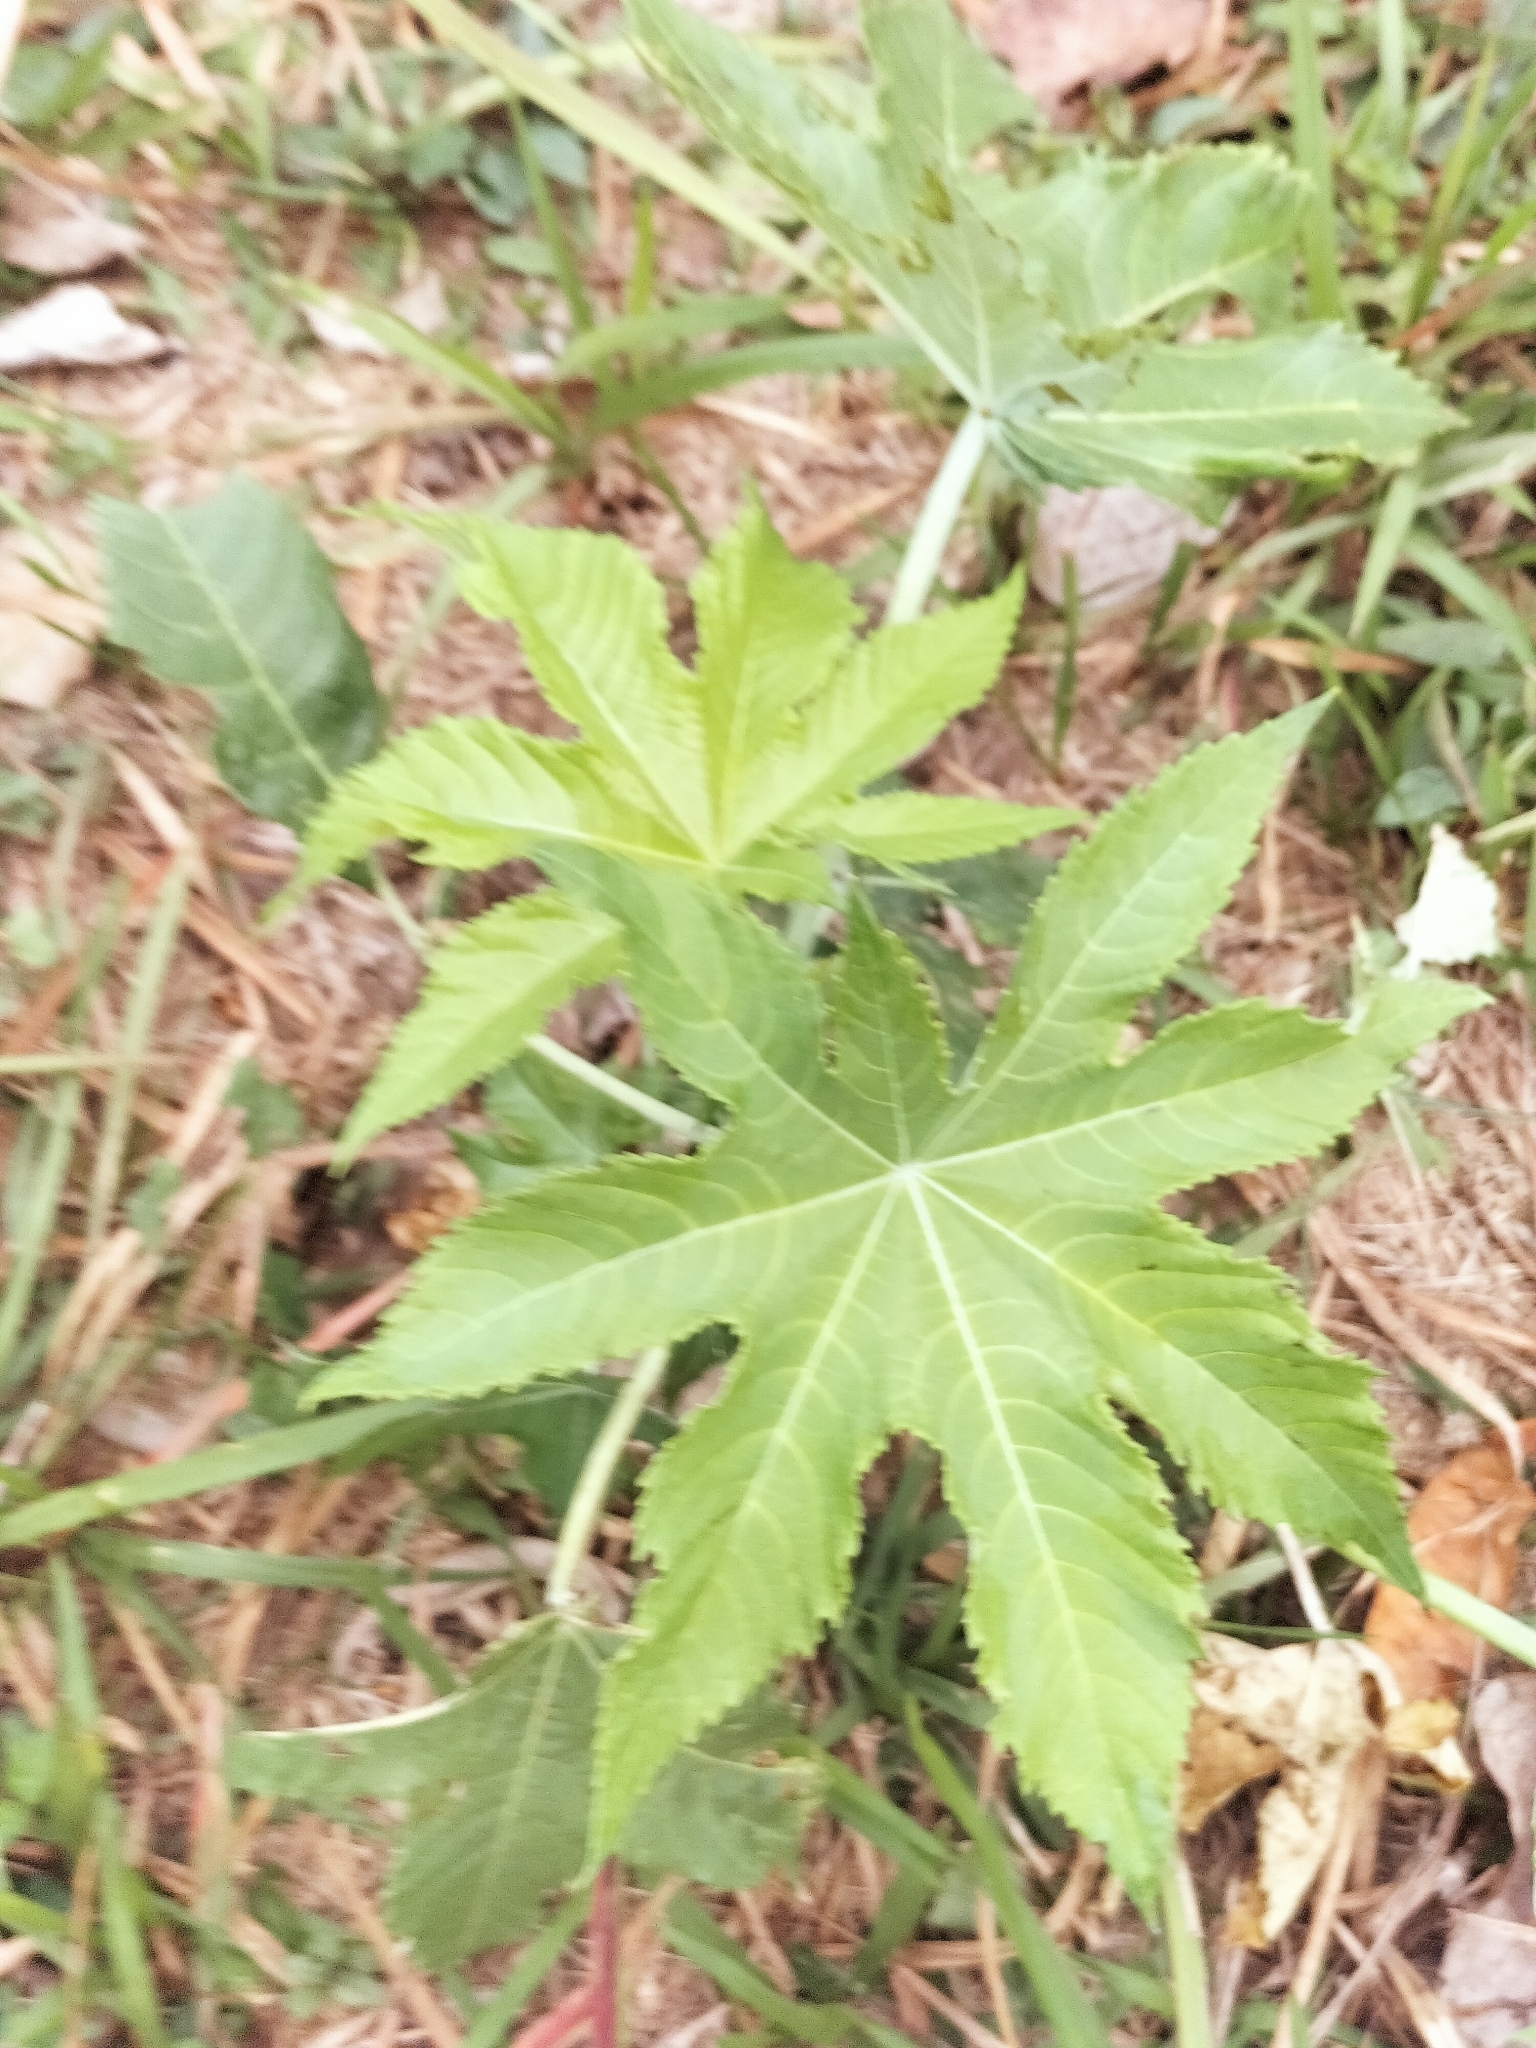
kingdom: Plantae
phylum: Tracheophyta
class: Magnoliopsida
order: Malpighiales
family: Euphorbiaceae
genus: Ricinus
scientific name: Ricinus communis
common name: Castor-oil-plant
